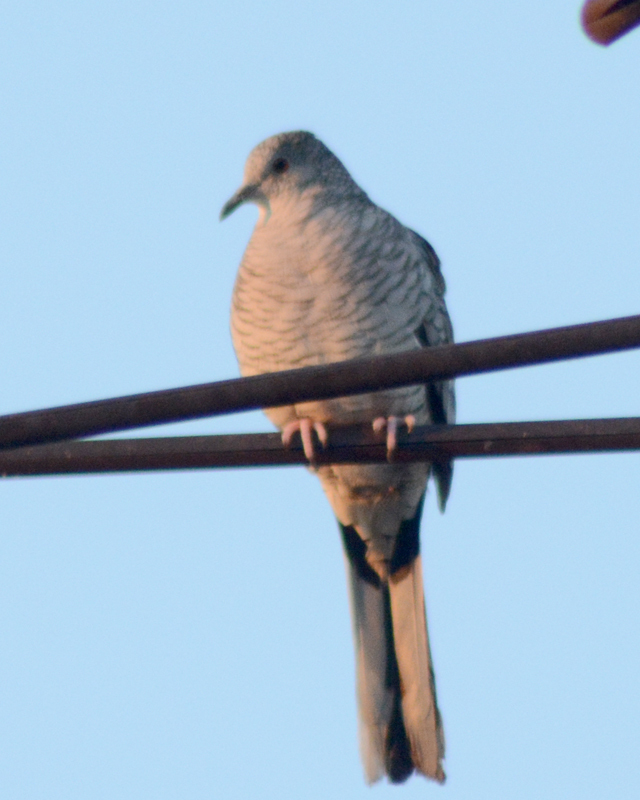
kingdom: Animalia
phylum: Chordata
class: Aves
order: Columbiformes
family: Columbidae
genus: Columbina
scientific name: Columbina inca
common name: Inca dove
